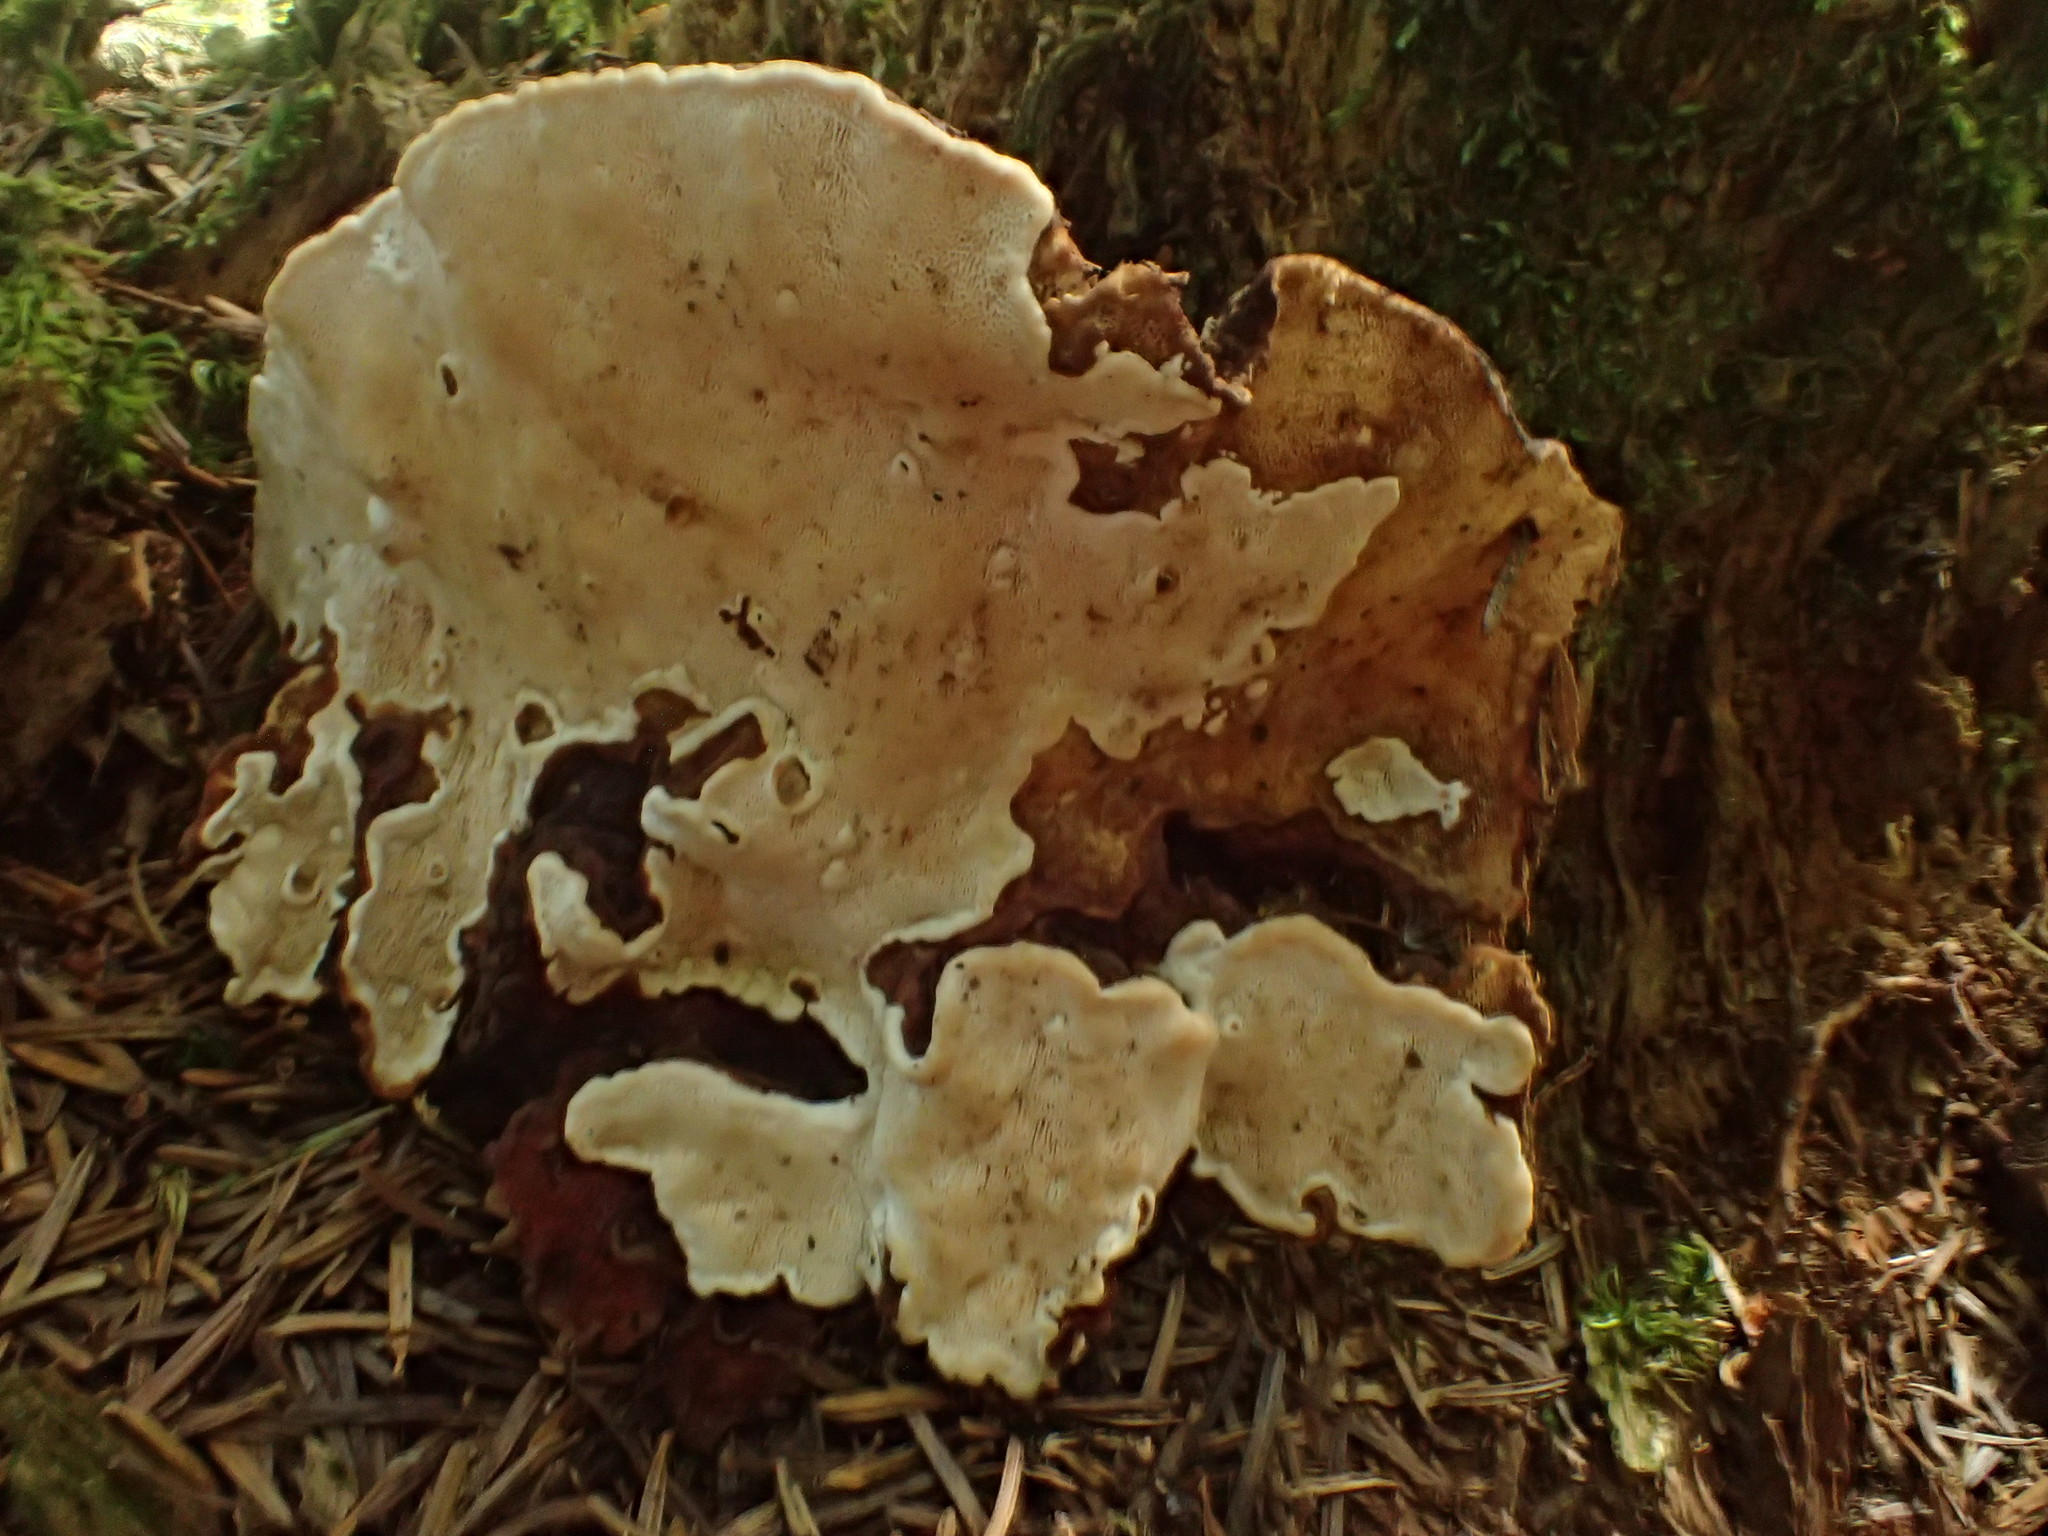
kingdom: Fungi
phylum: Basidiomycota
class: Agaricomycetes
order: Russulales
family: Bondarzewiaceae
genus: Heterobasidion
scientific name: Heterobasidion annosum
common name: Root rot
